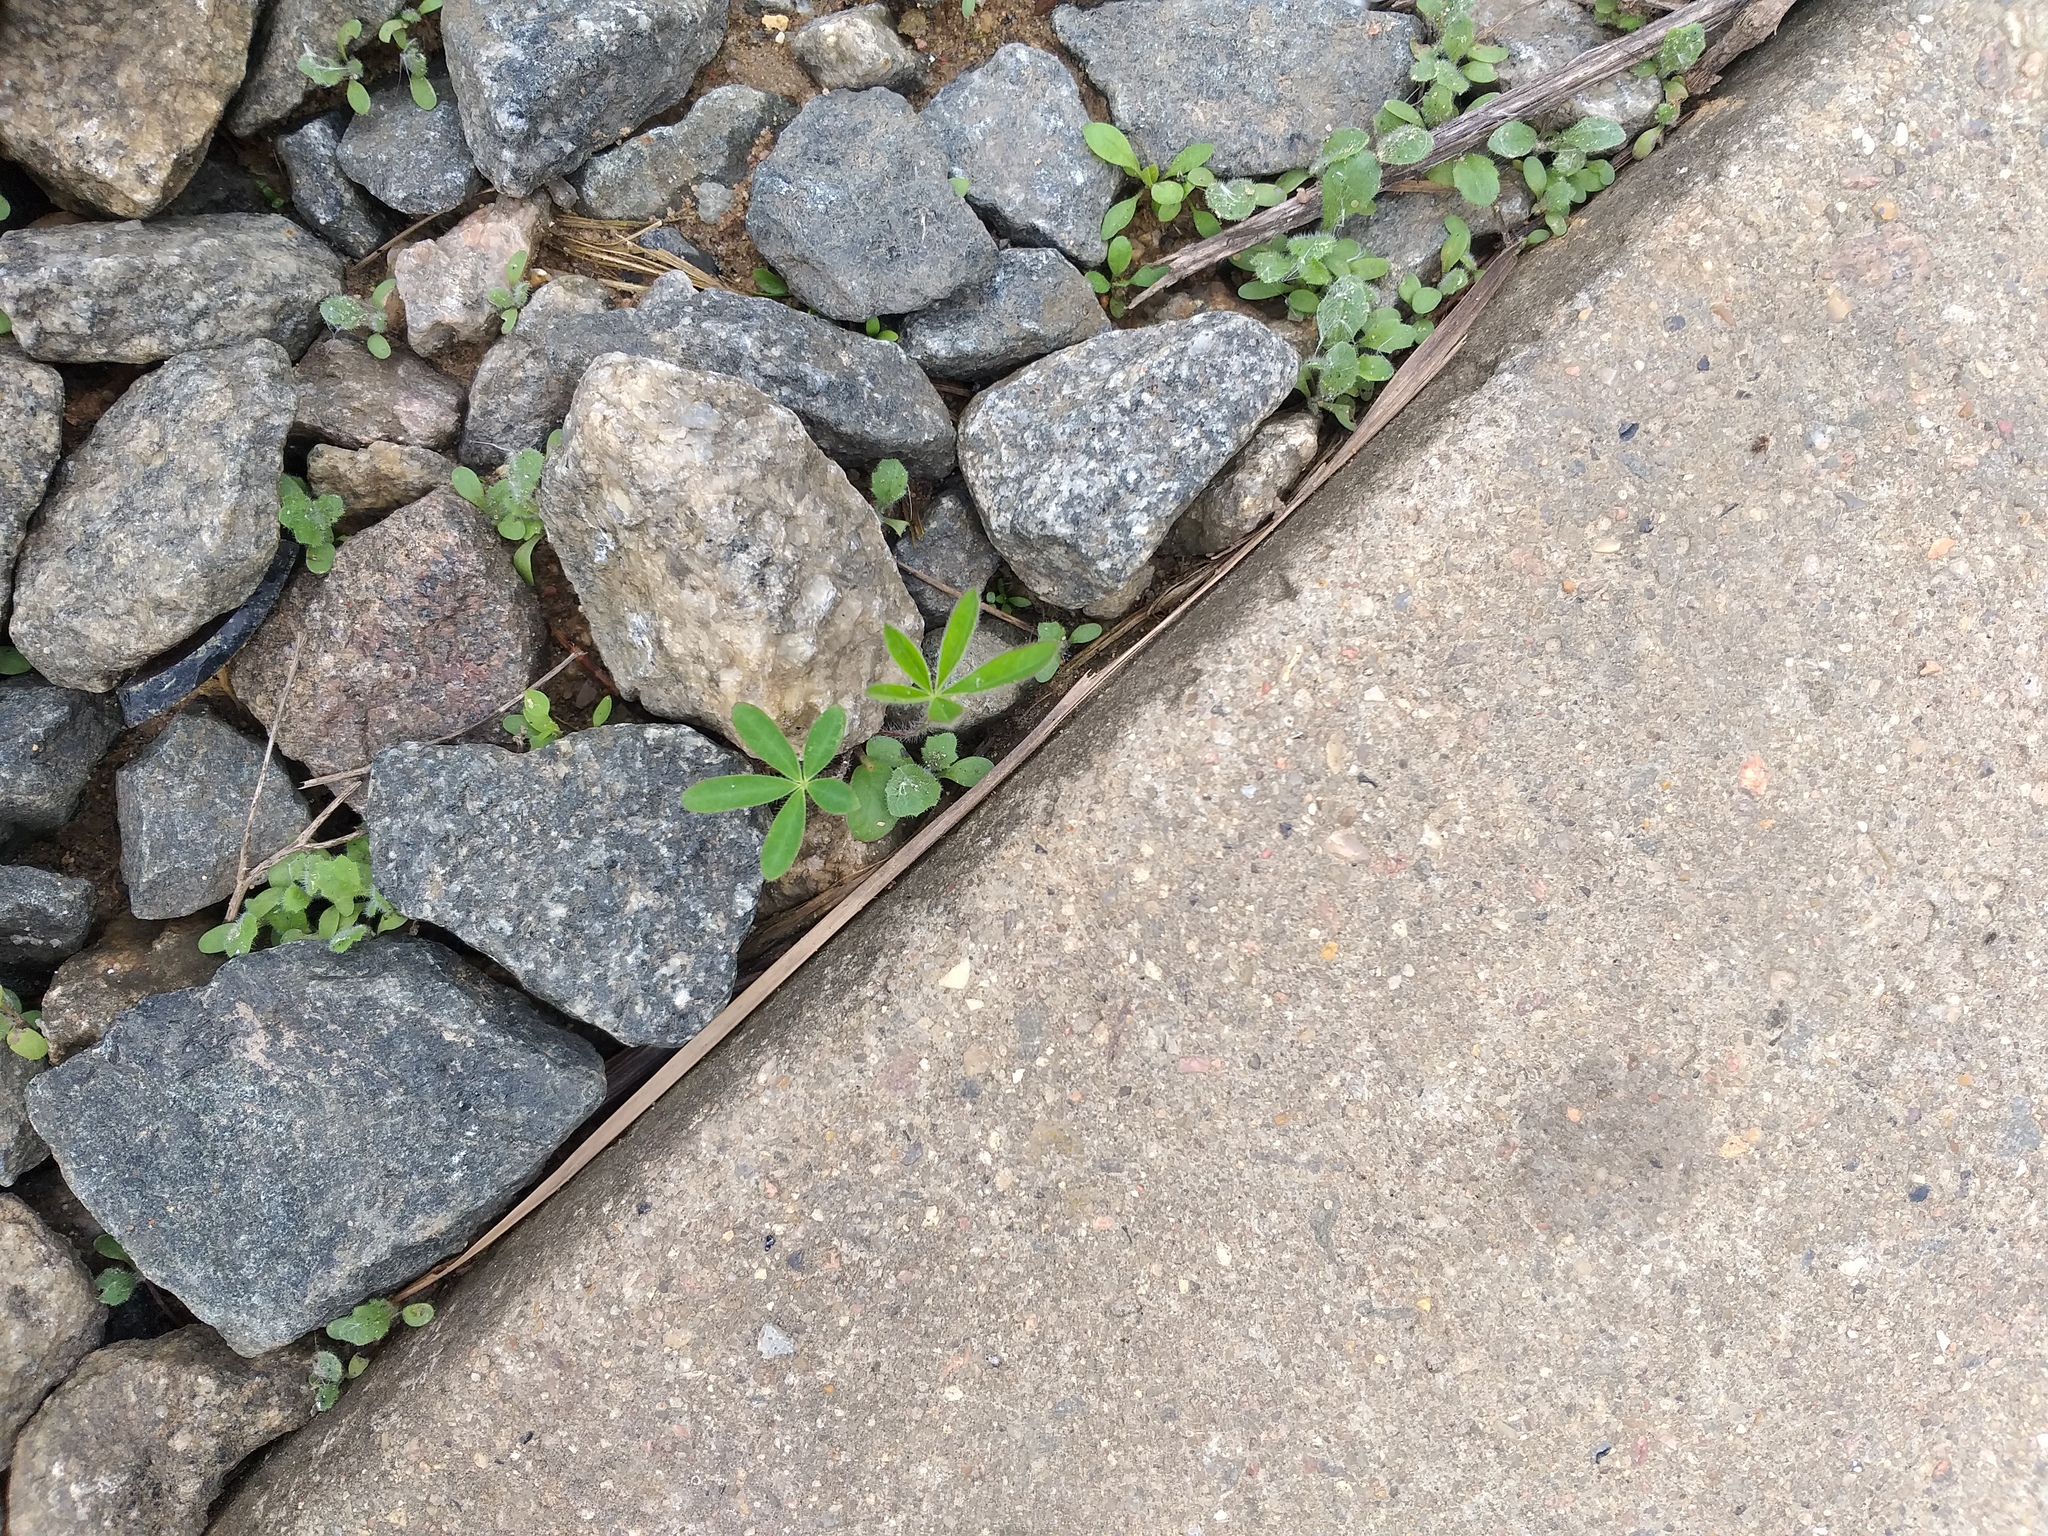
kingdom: Plantae
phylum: Tracheophyta
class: Magnoliopsida
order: Fabales
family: Fabaceae
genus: Lupinus
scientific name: Lupinus polyphyllus
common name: Garden lupin
